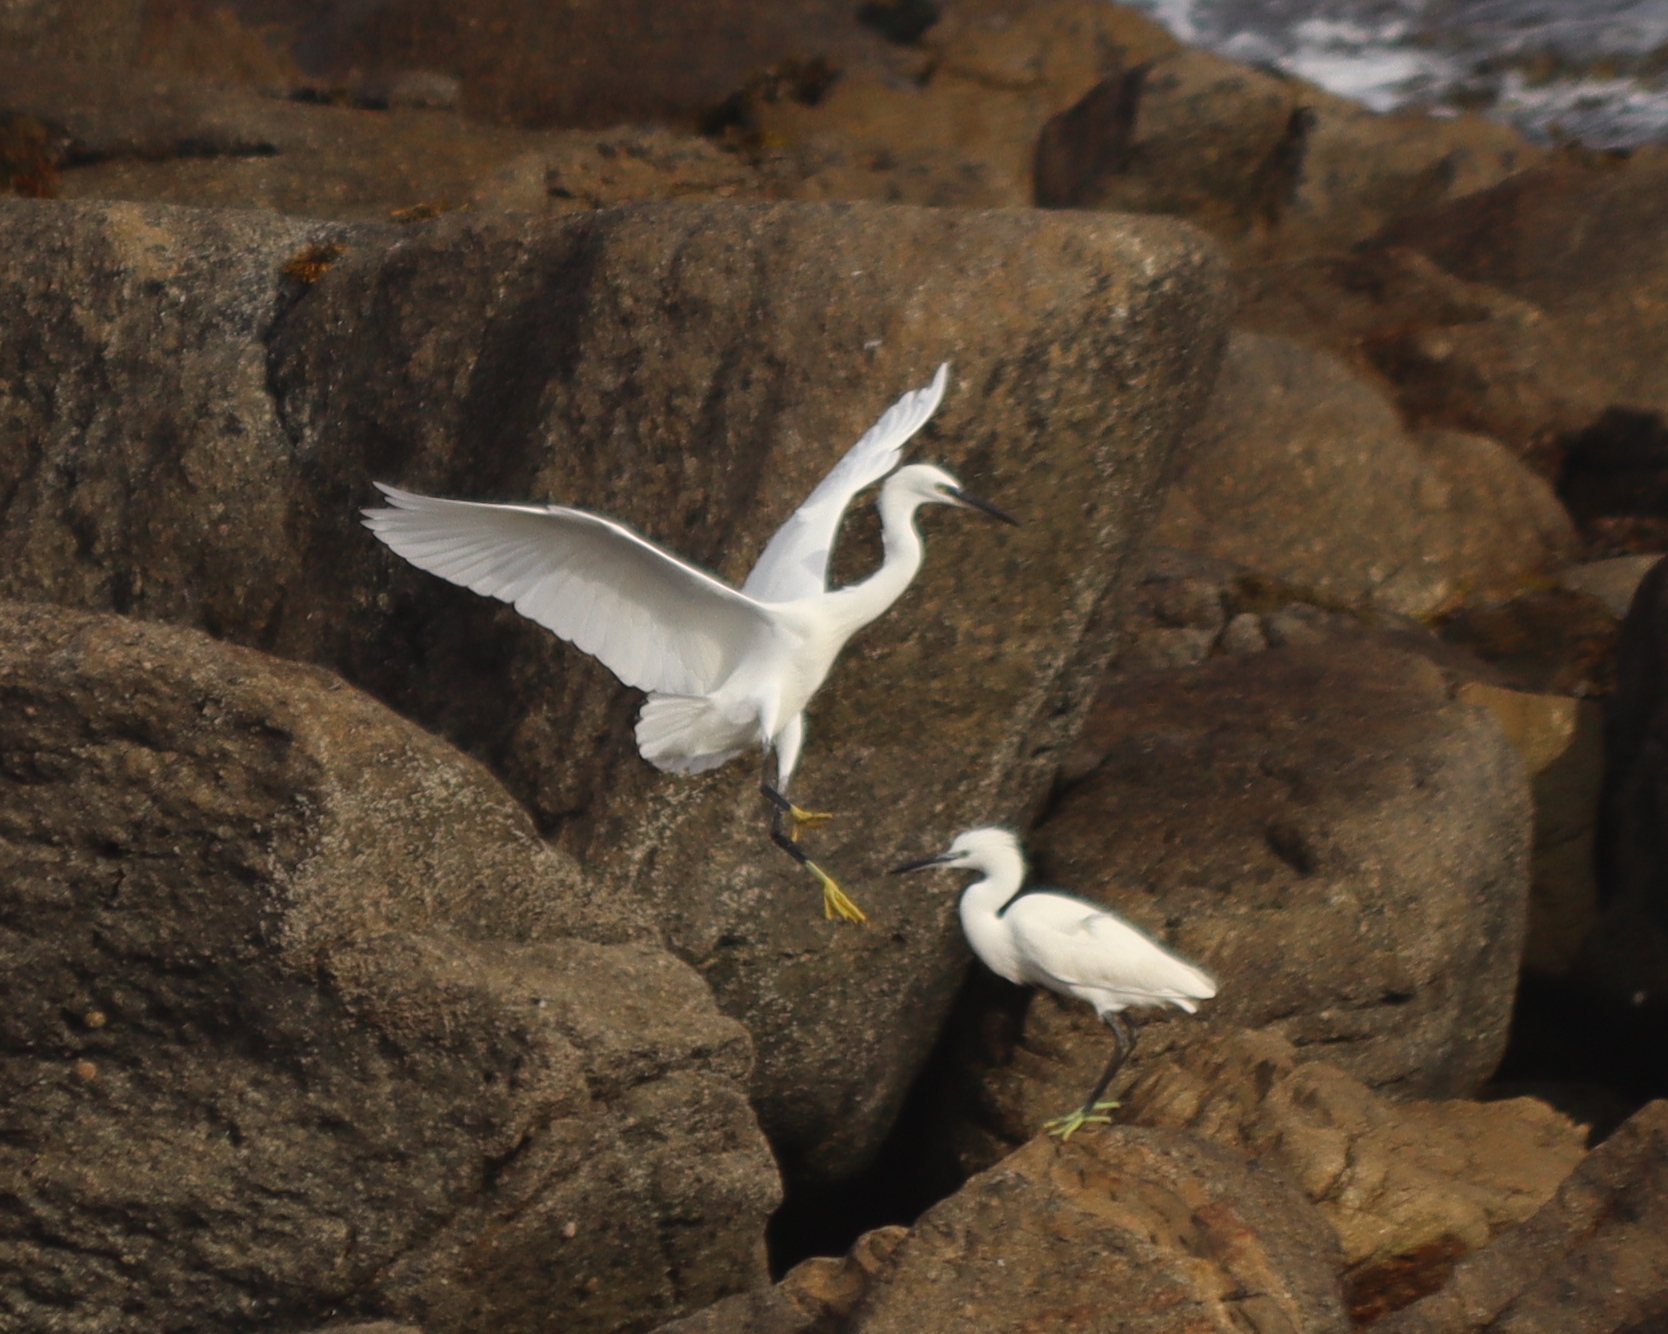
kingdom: Animalia
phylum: Chordata
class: Aves
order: Pelecaniformes
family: Ardeidae
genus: Egretta
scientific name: Egretta garzetta
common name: Little egret
